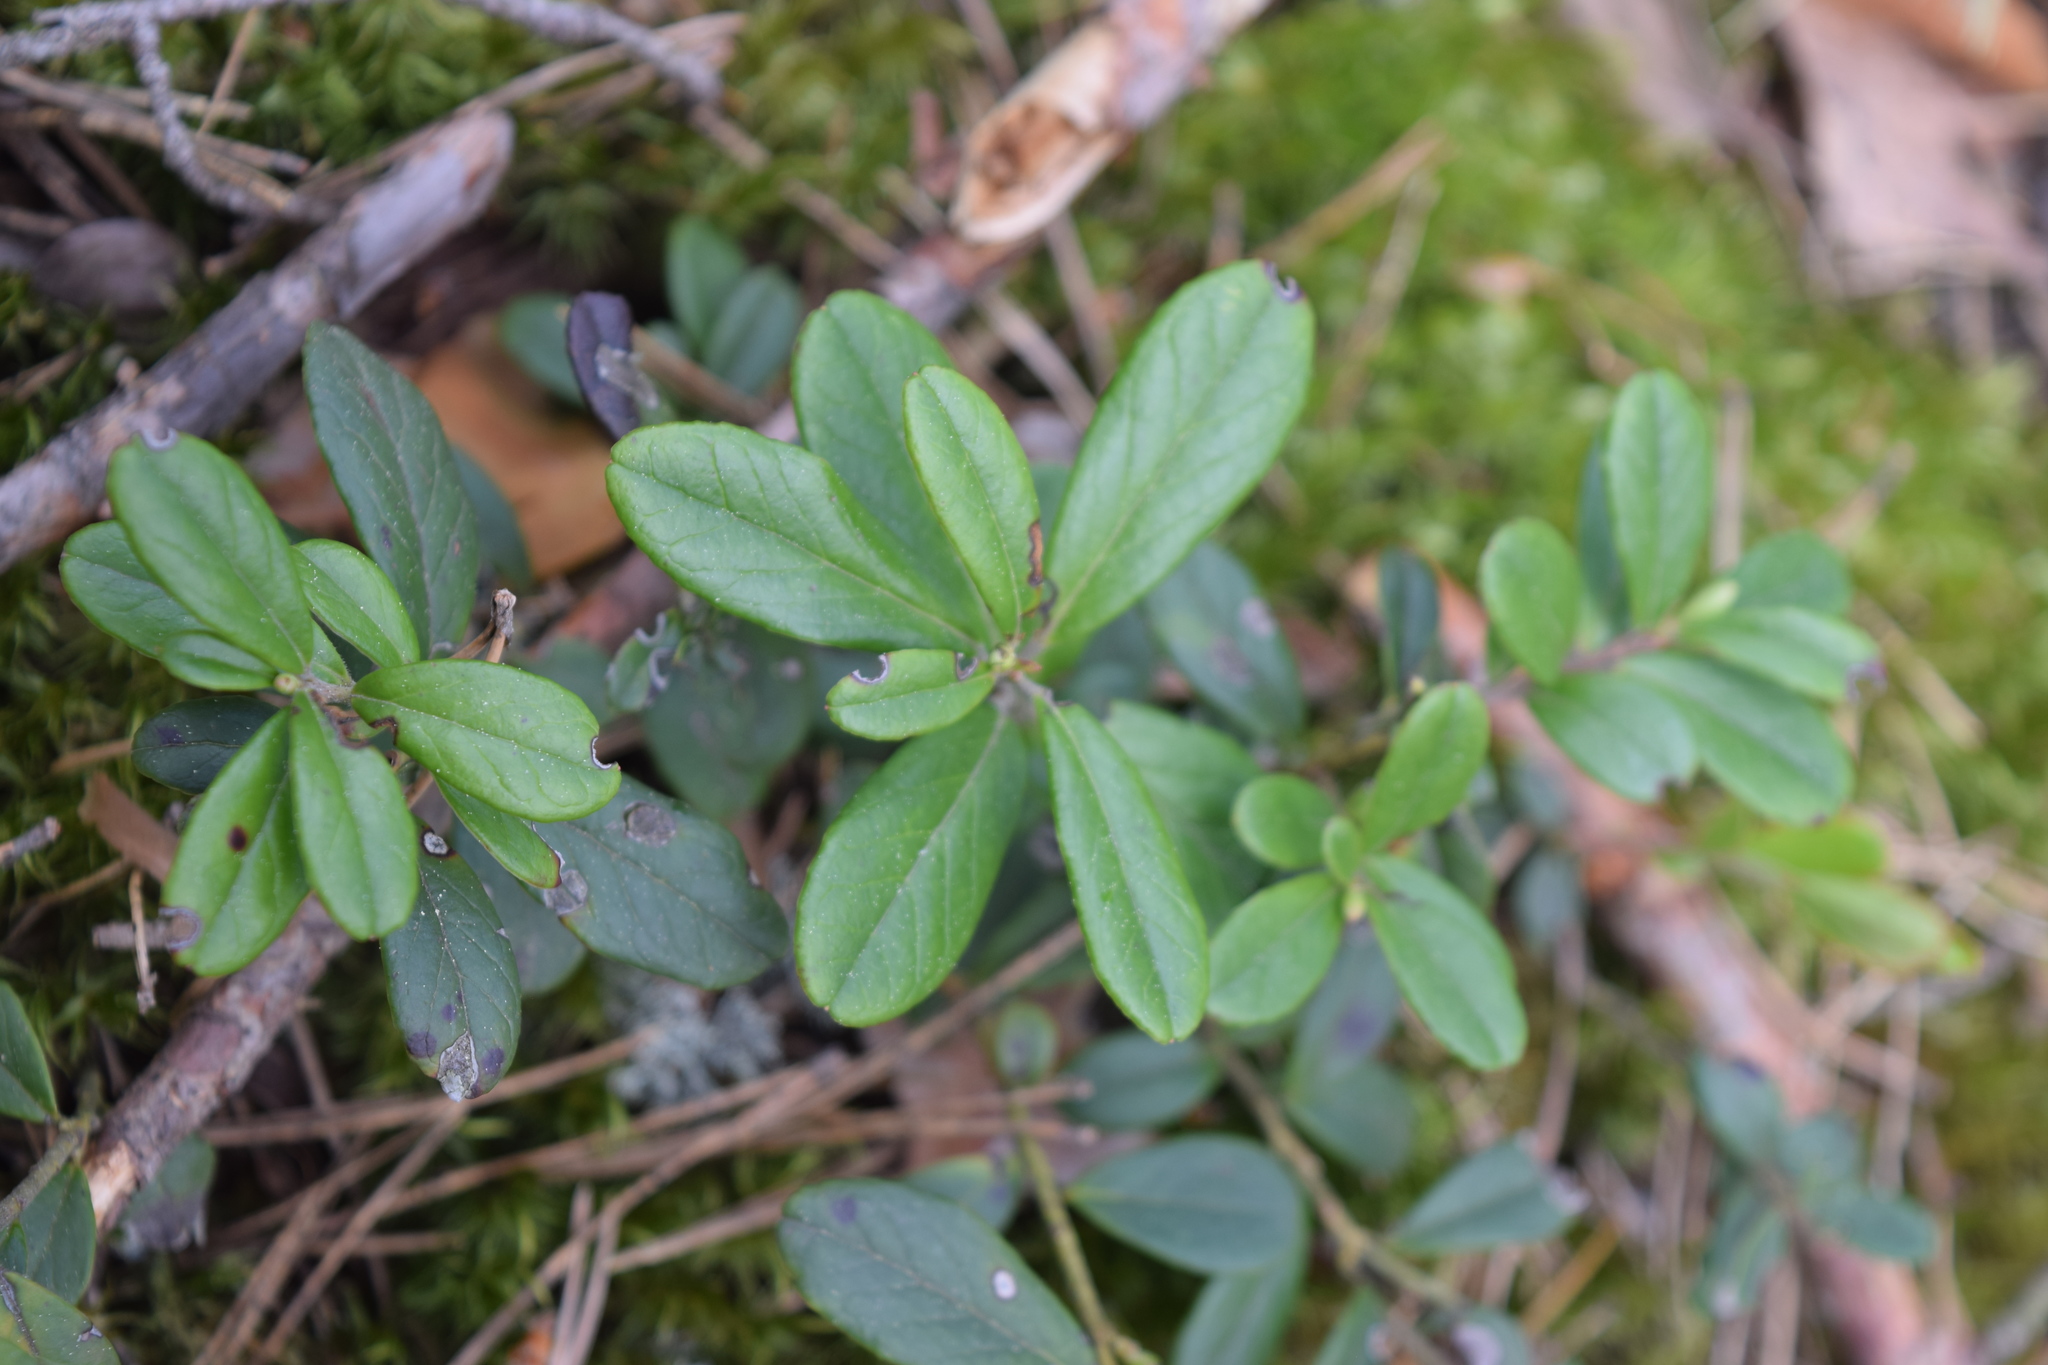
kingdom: Plantae
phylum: Tracheophyta
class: Magnoliopsida
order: Ericales
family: Ericaceae
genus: Vaccinium
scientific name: Vaccinium vitis-idaea
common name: Cowberry
